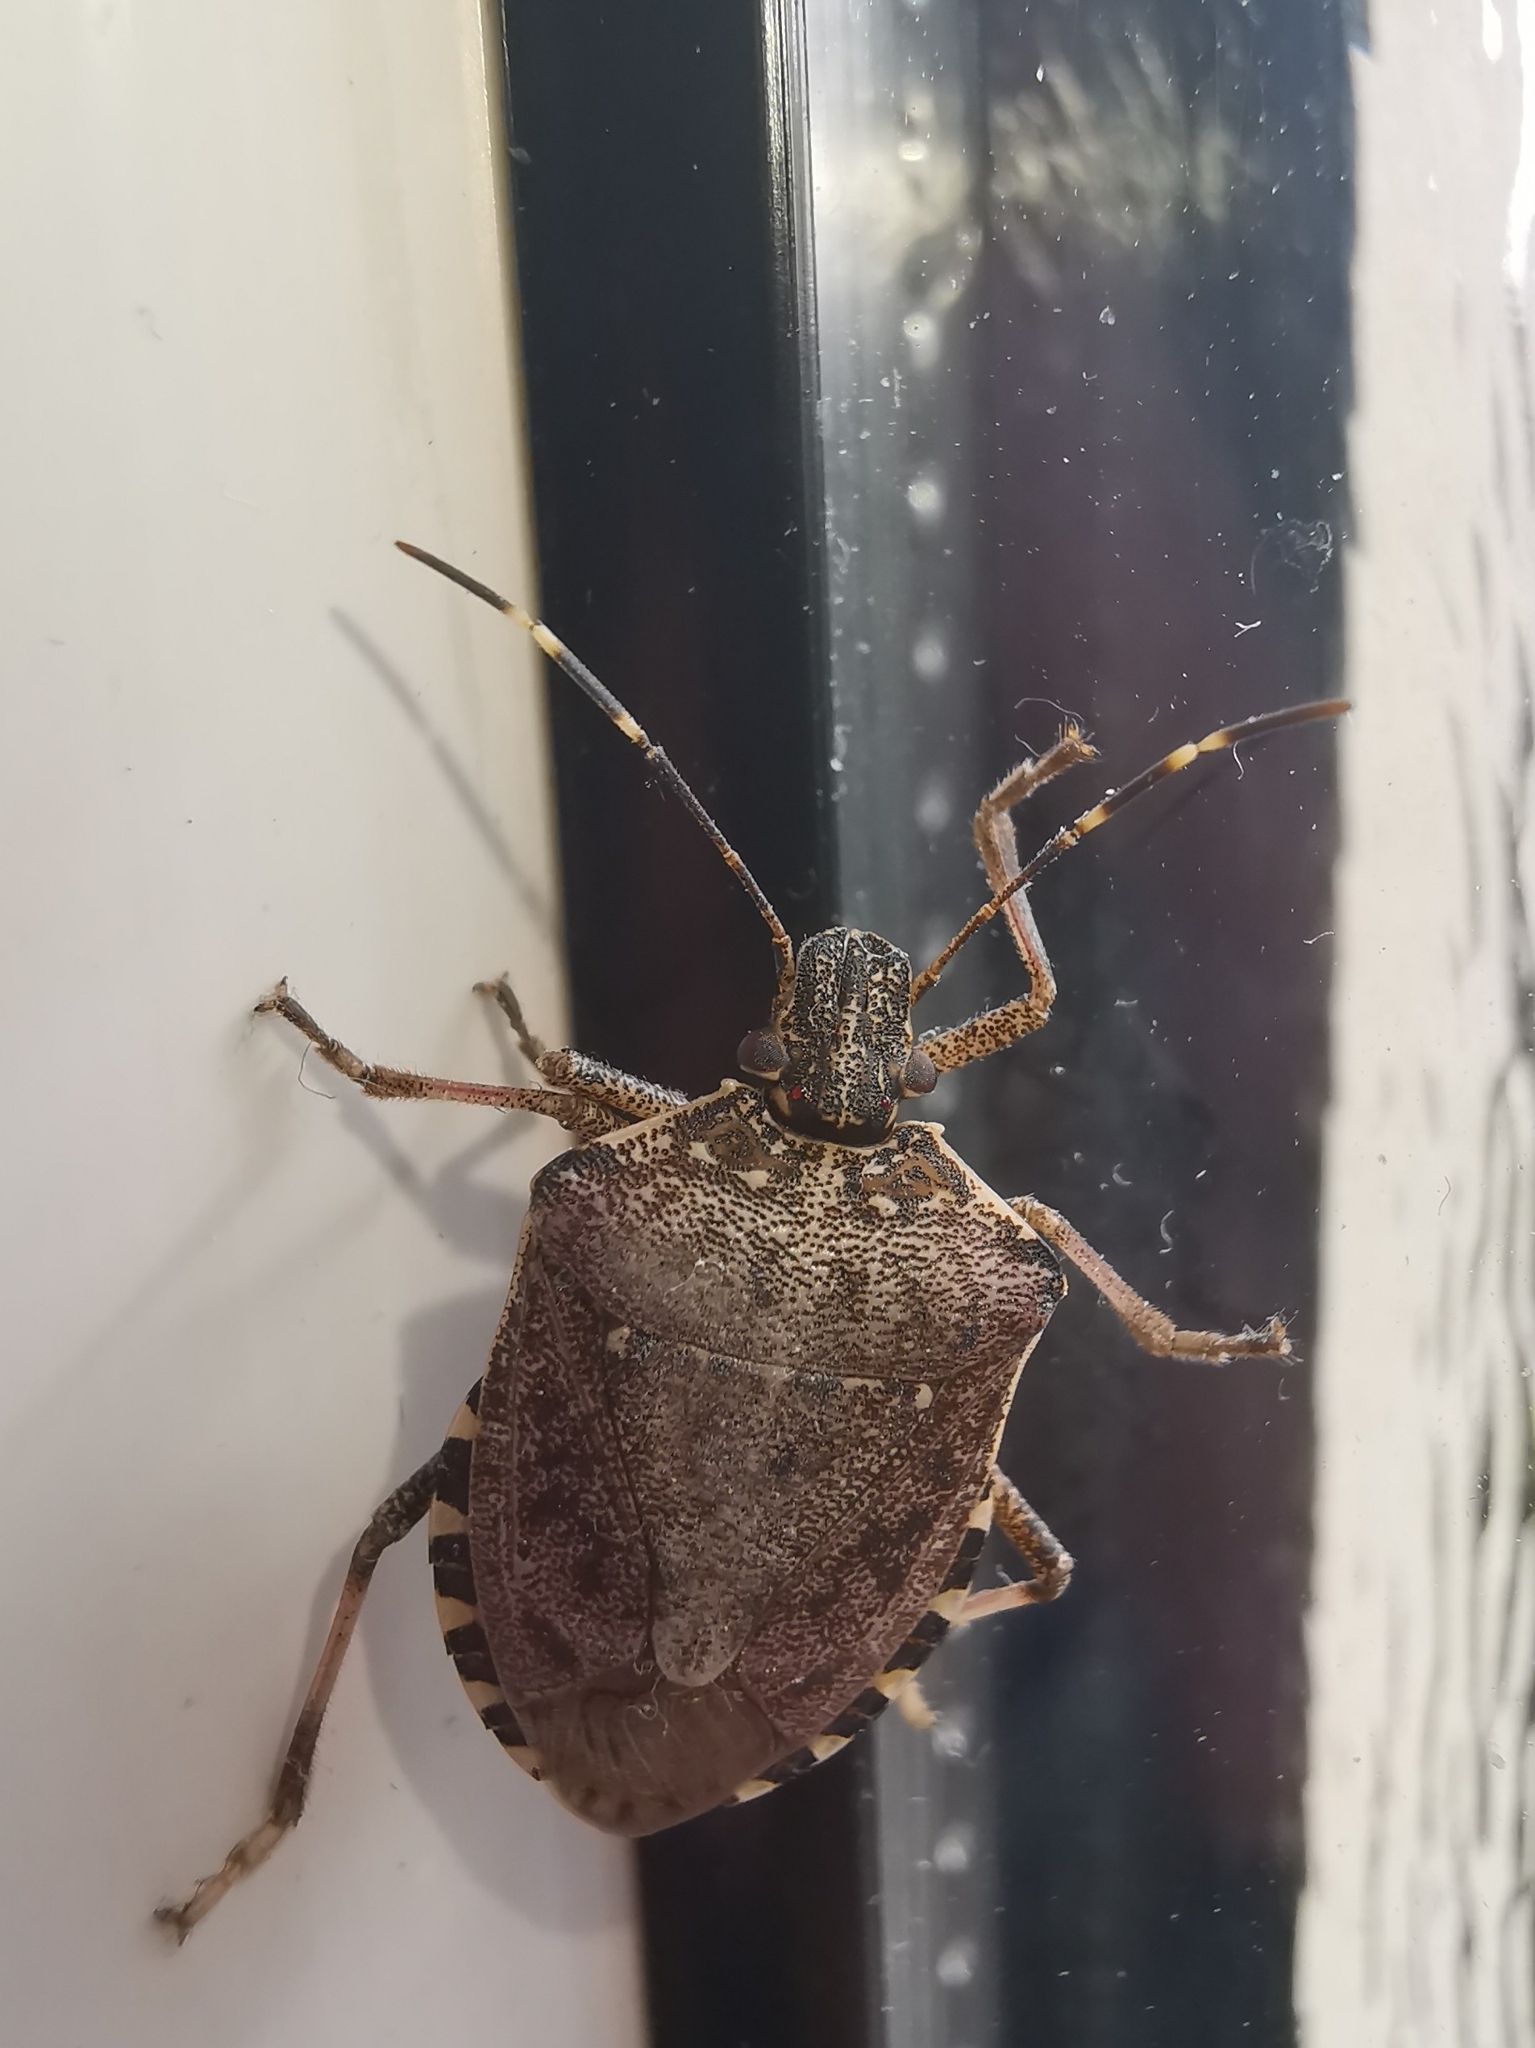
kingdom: Animalia
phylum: Arthropoda
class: Insecta
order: Hemiptera
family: Pentatomidae
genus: Halyomorpha
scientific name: Halyomorpha halys
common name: Brown marmorated stink bug
